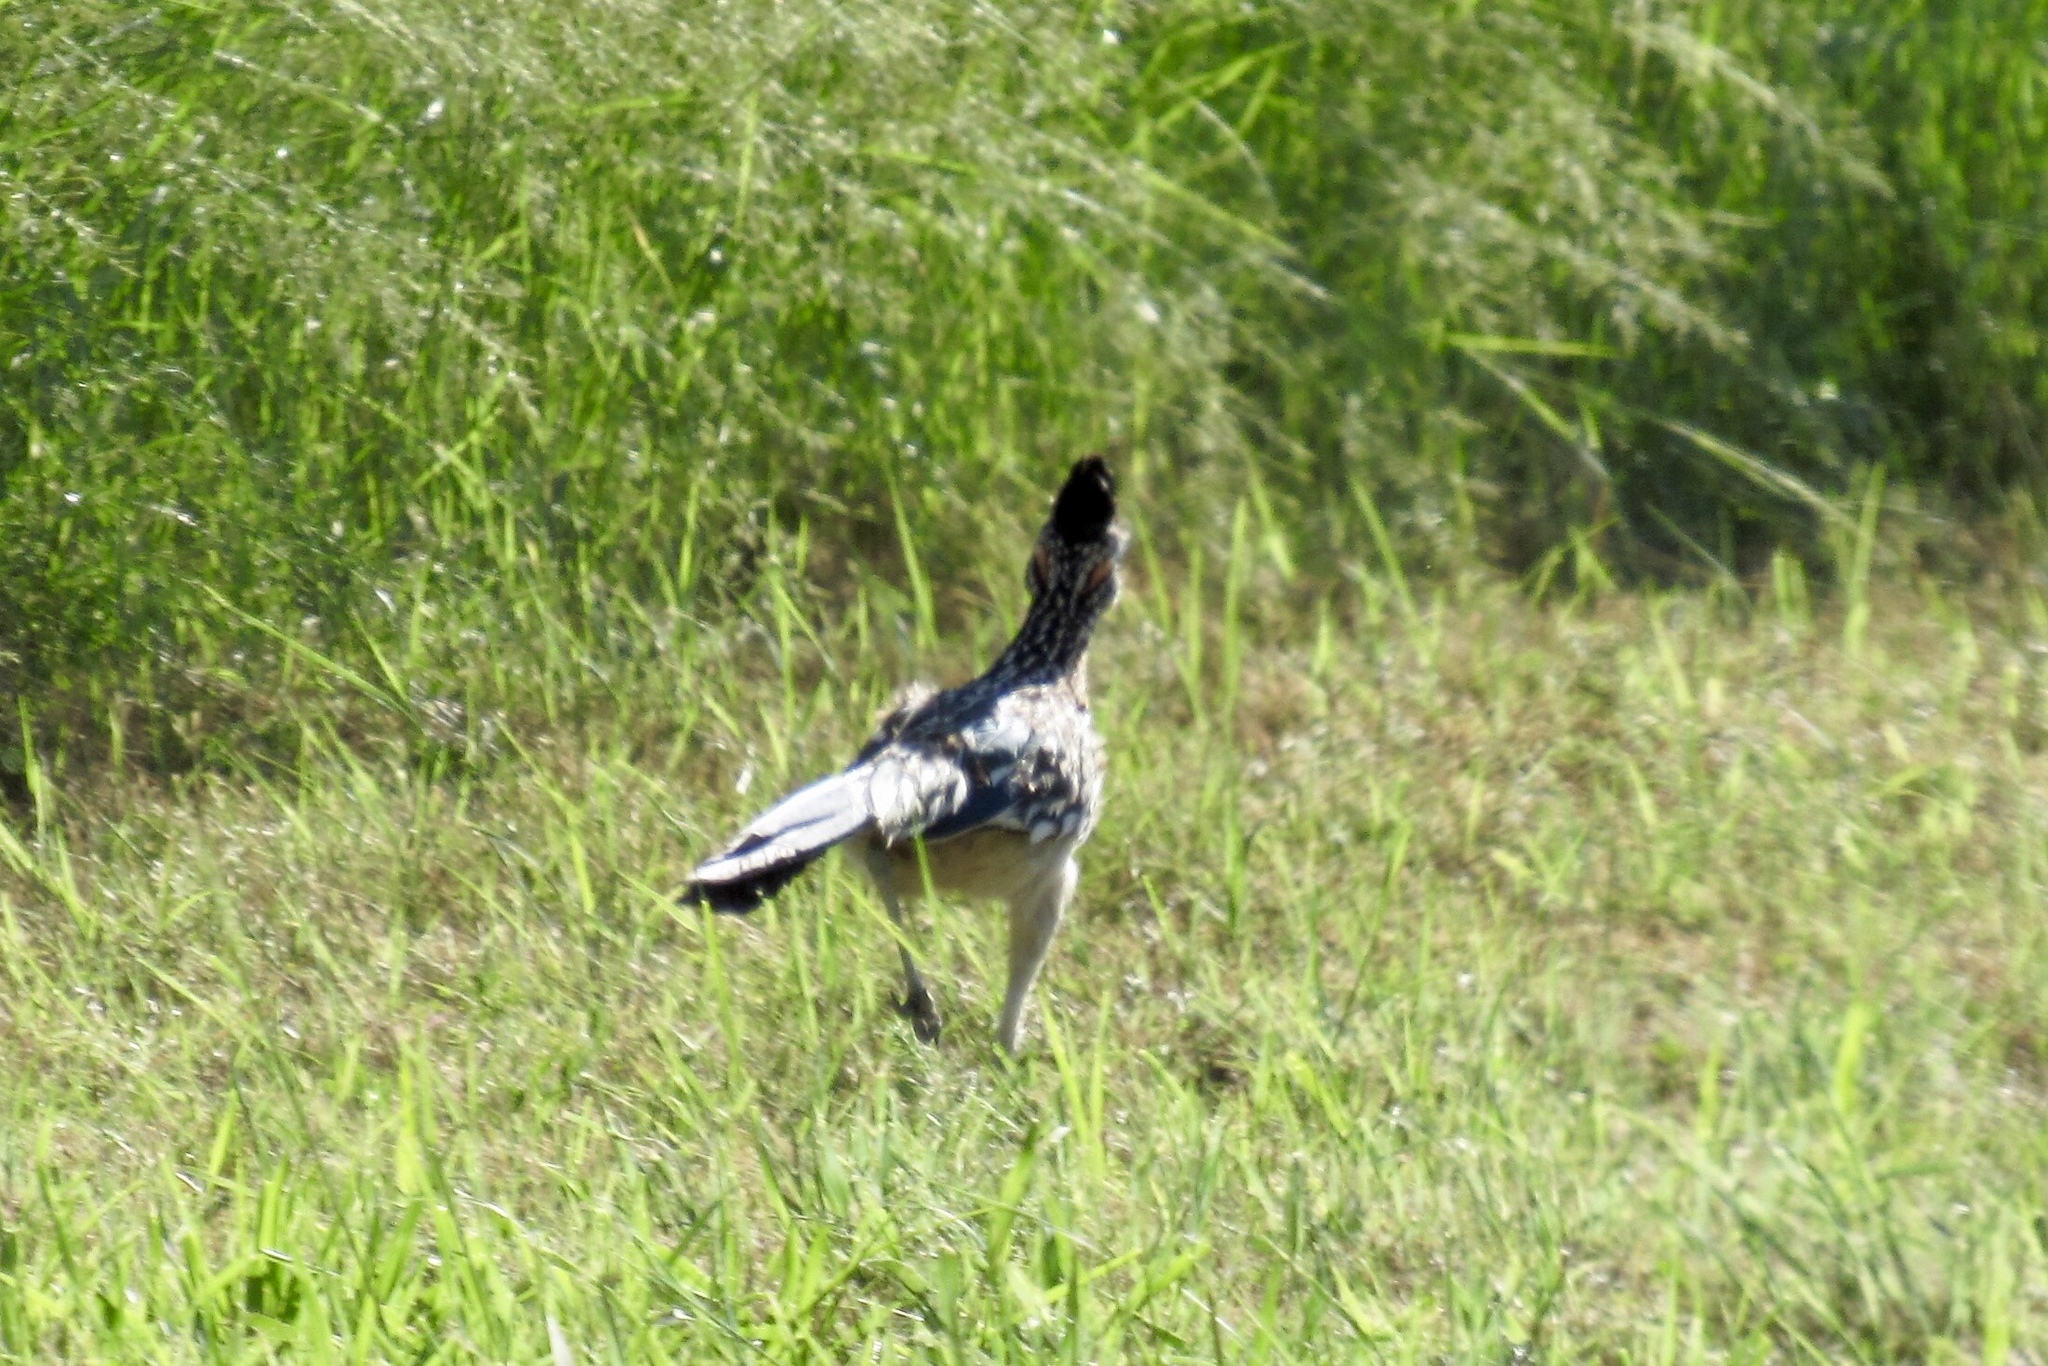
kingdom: Animalia
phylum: Chordata
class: Aves
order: Cuculiformes
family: Cuculidae
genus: Geococcyx
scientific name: Geococcyx californianus
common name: Greater roadrunner
